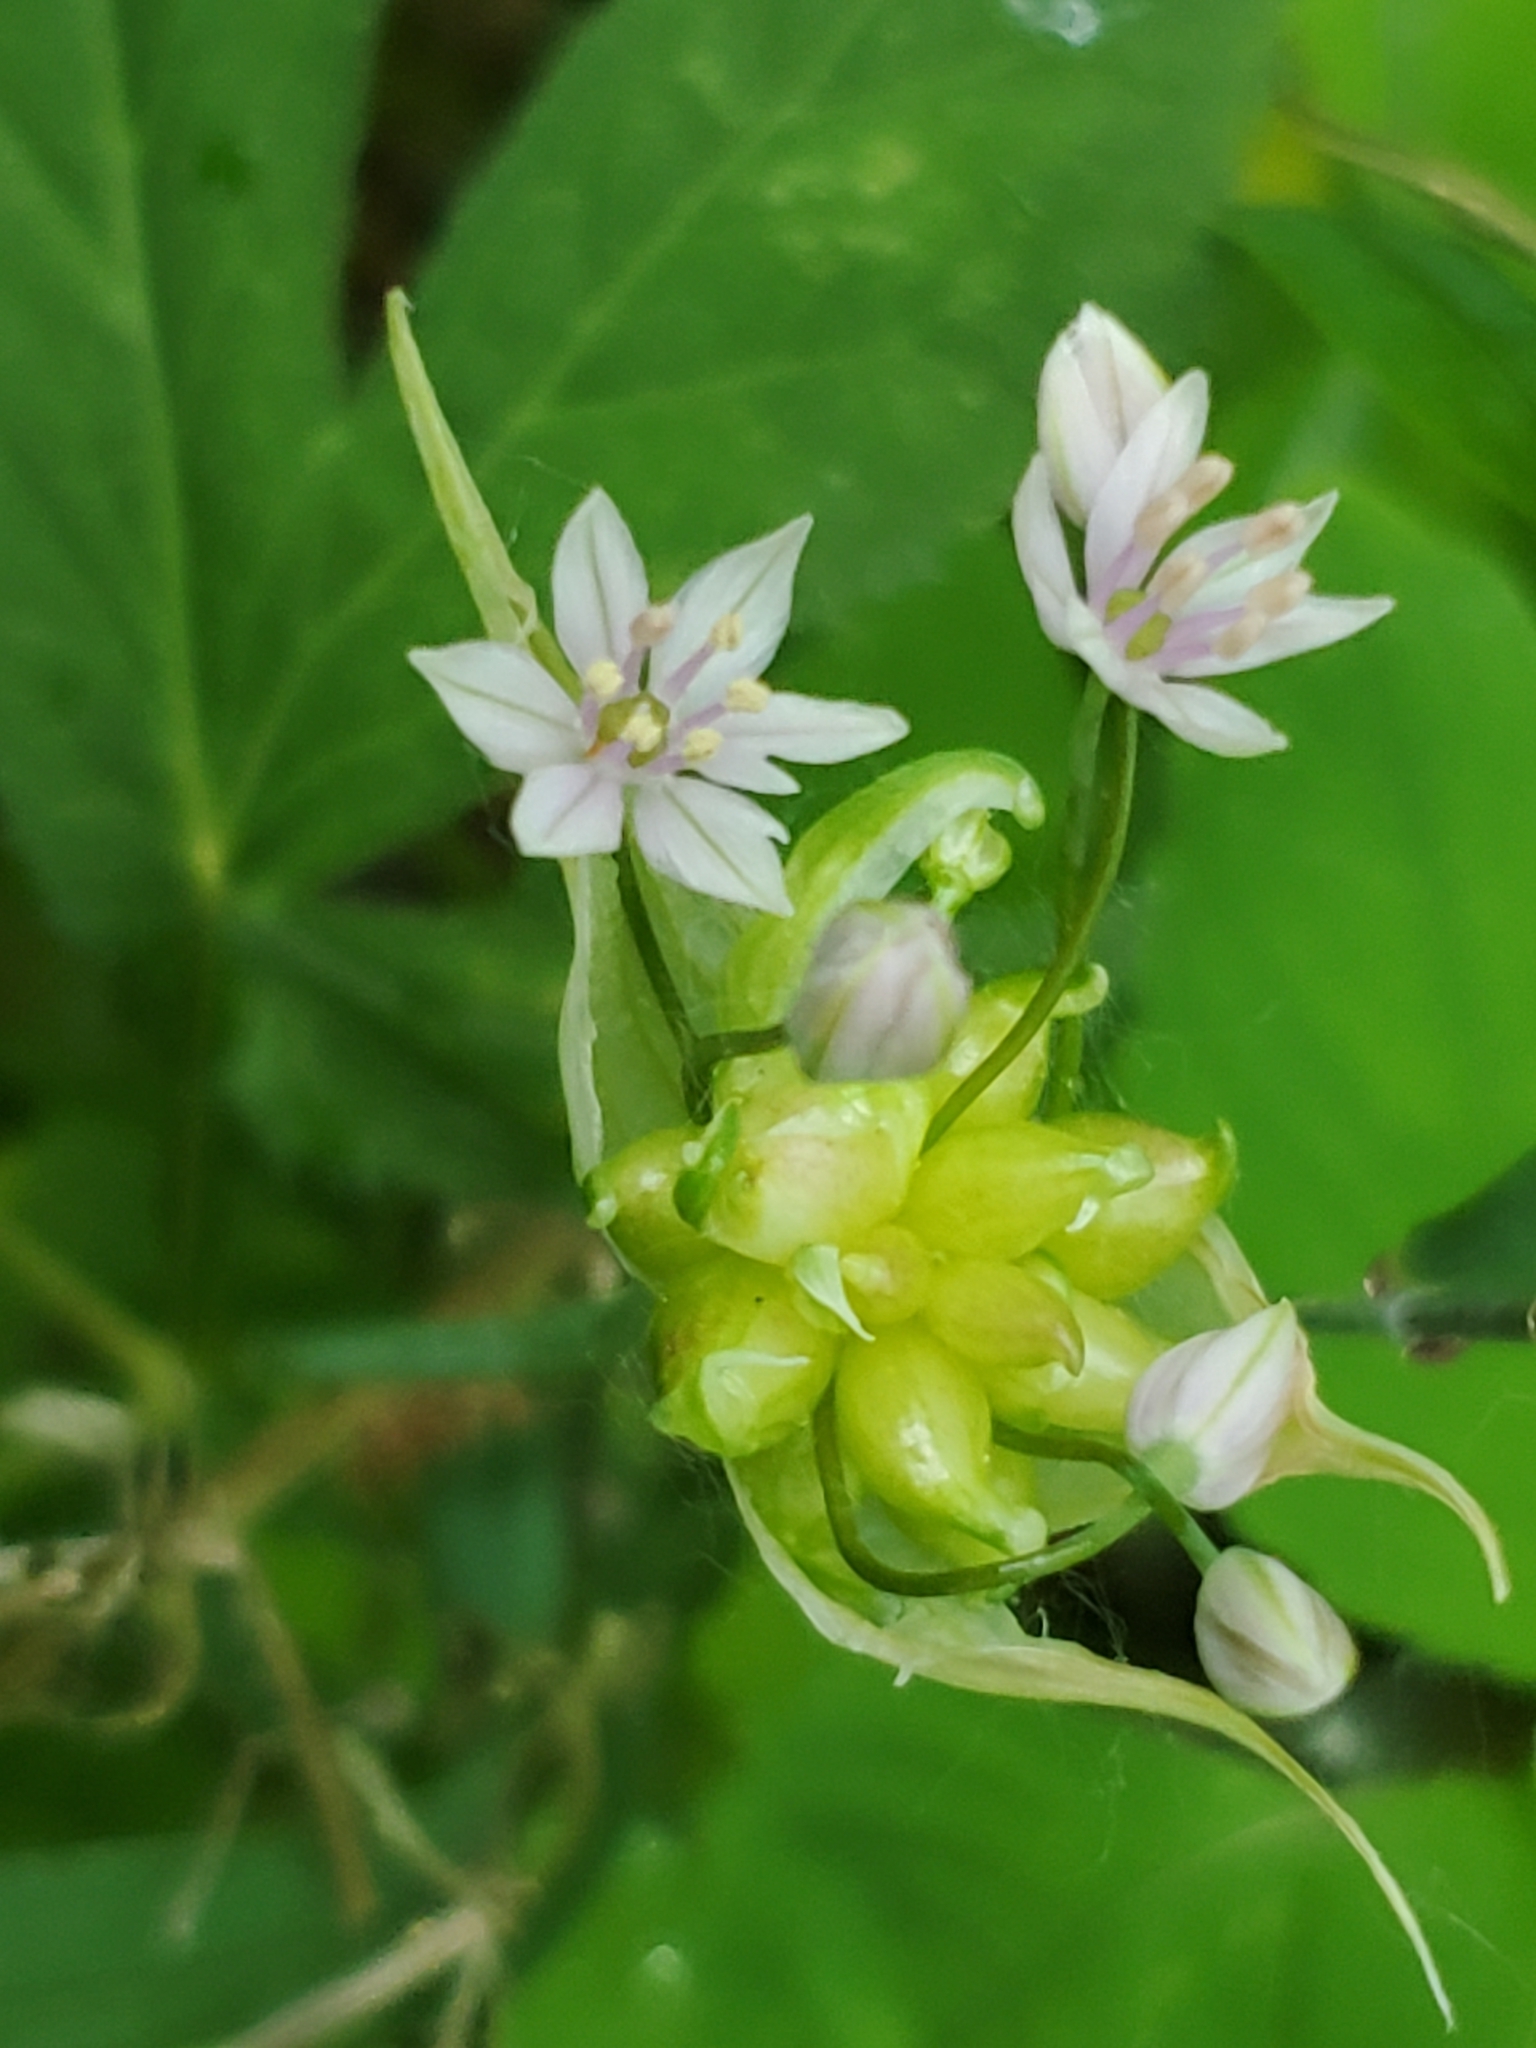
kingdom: Plantae
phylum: Tracheophyta
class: Liliopsida
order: Asparagales
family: Amaryllidaceae
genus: Allium
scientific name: Allium canadense
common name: Meadow garlic
